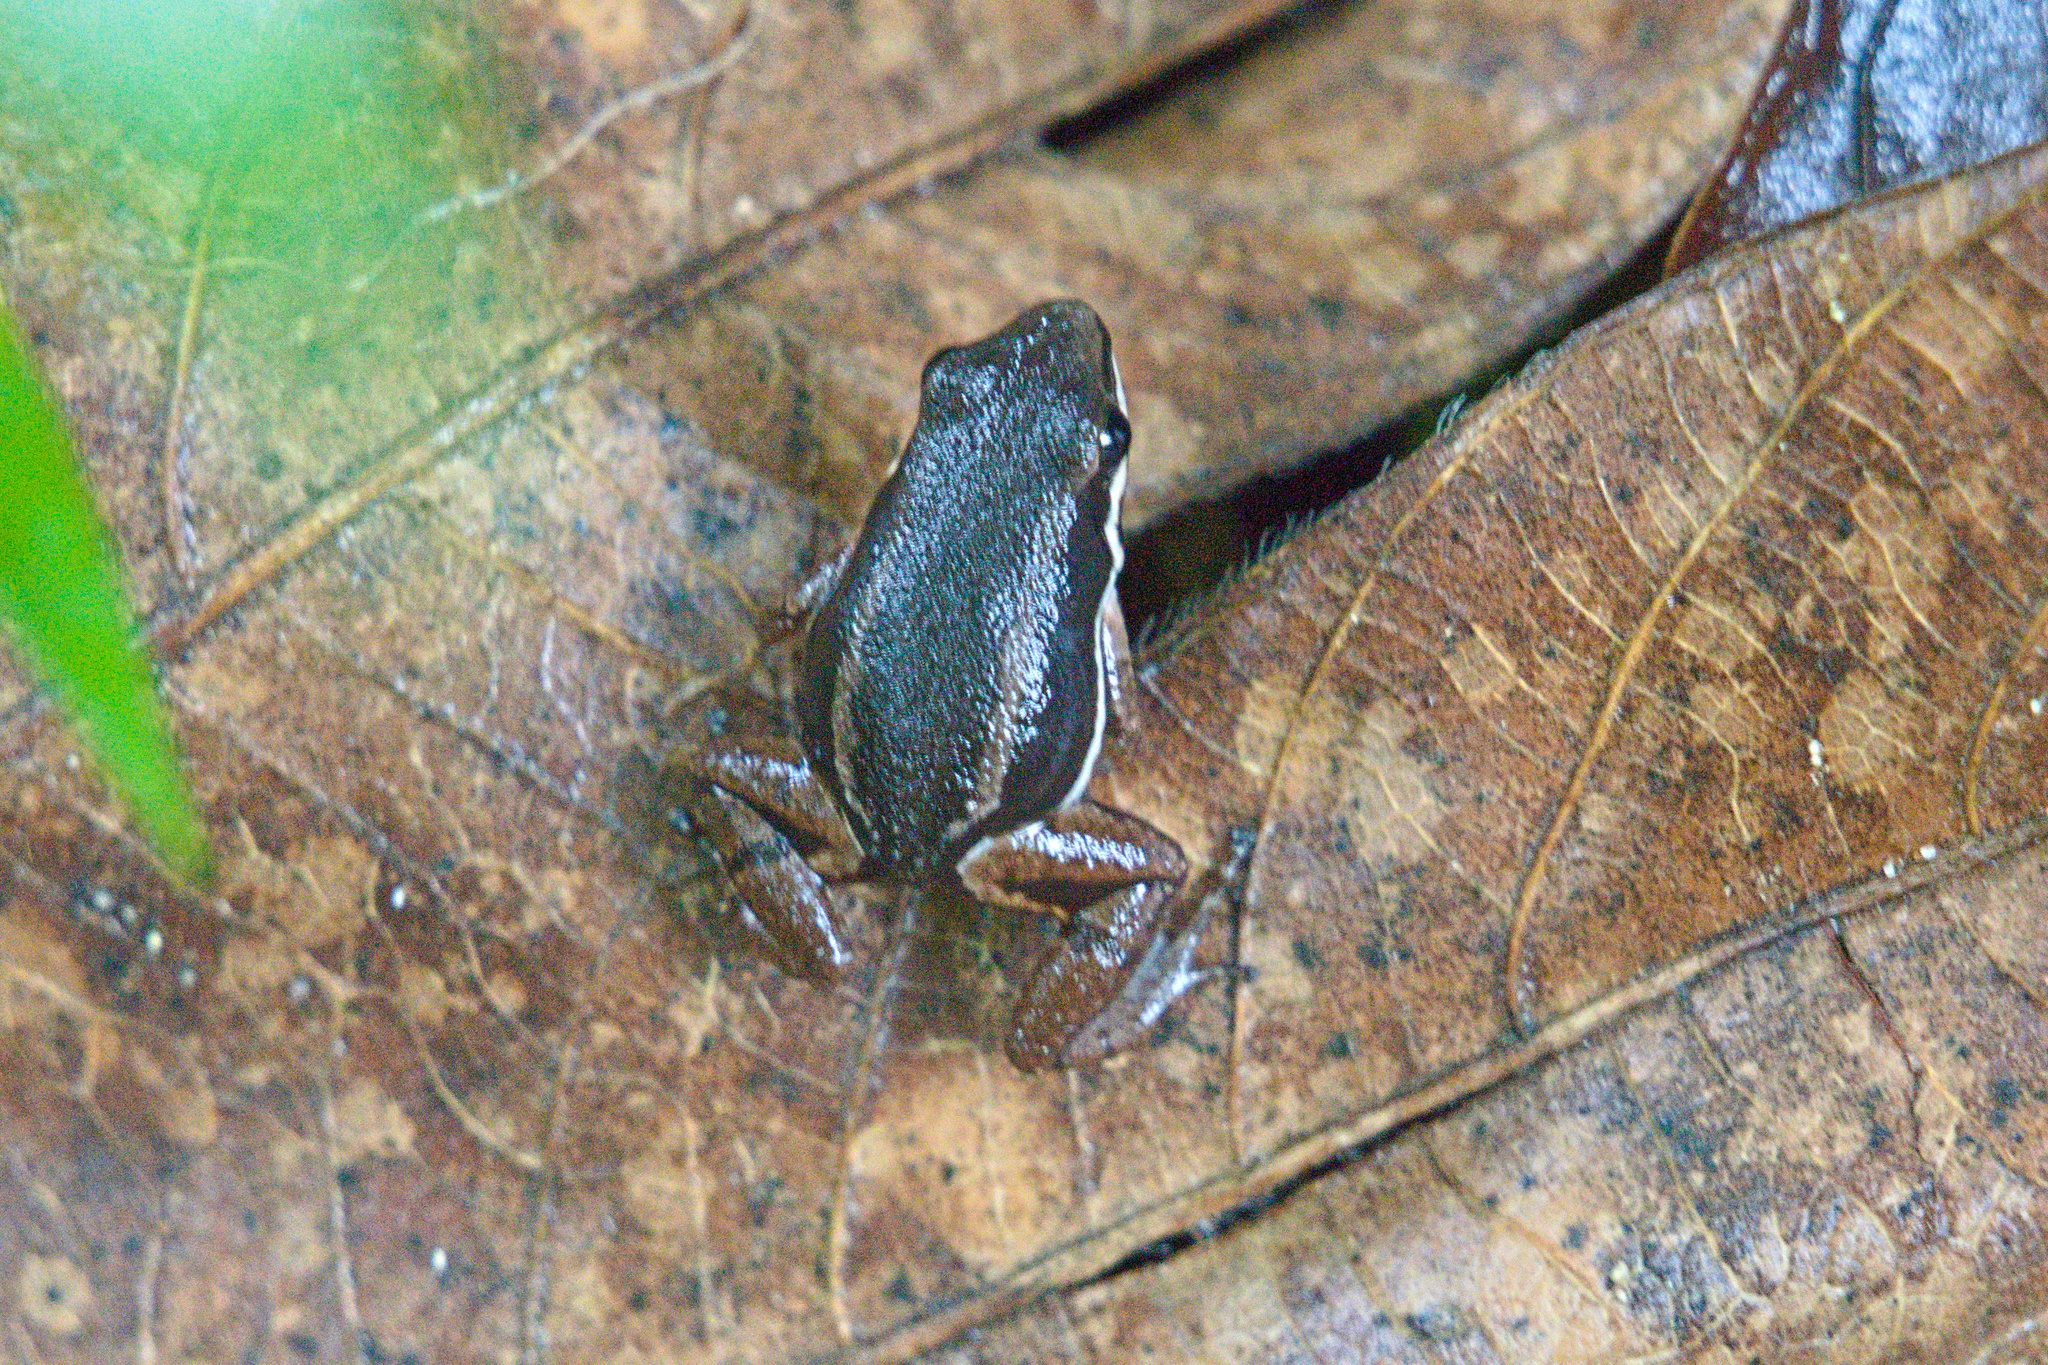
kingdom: Animalia
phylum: Chordata
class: Amphibia
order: Anura
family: Aromobatidae
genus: Allobates
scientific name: Allobates talamancae
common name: Talamanca rocket frog
